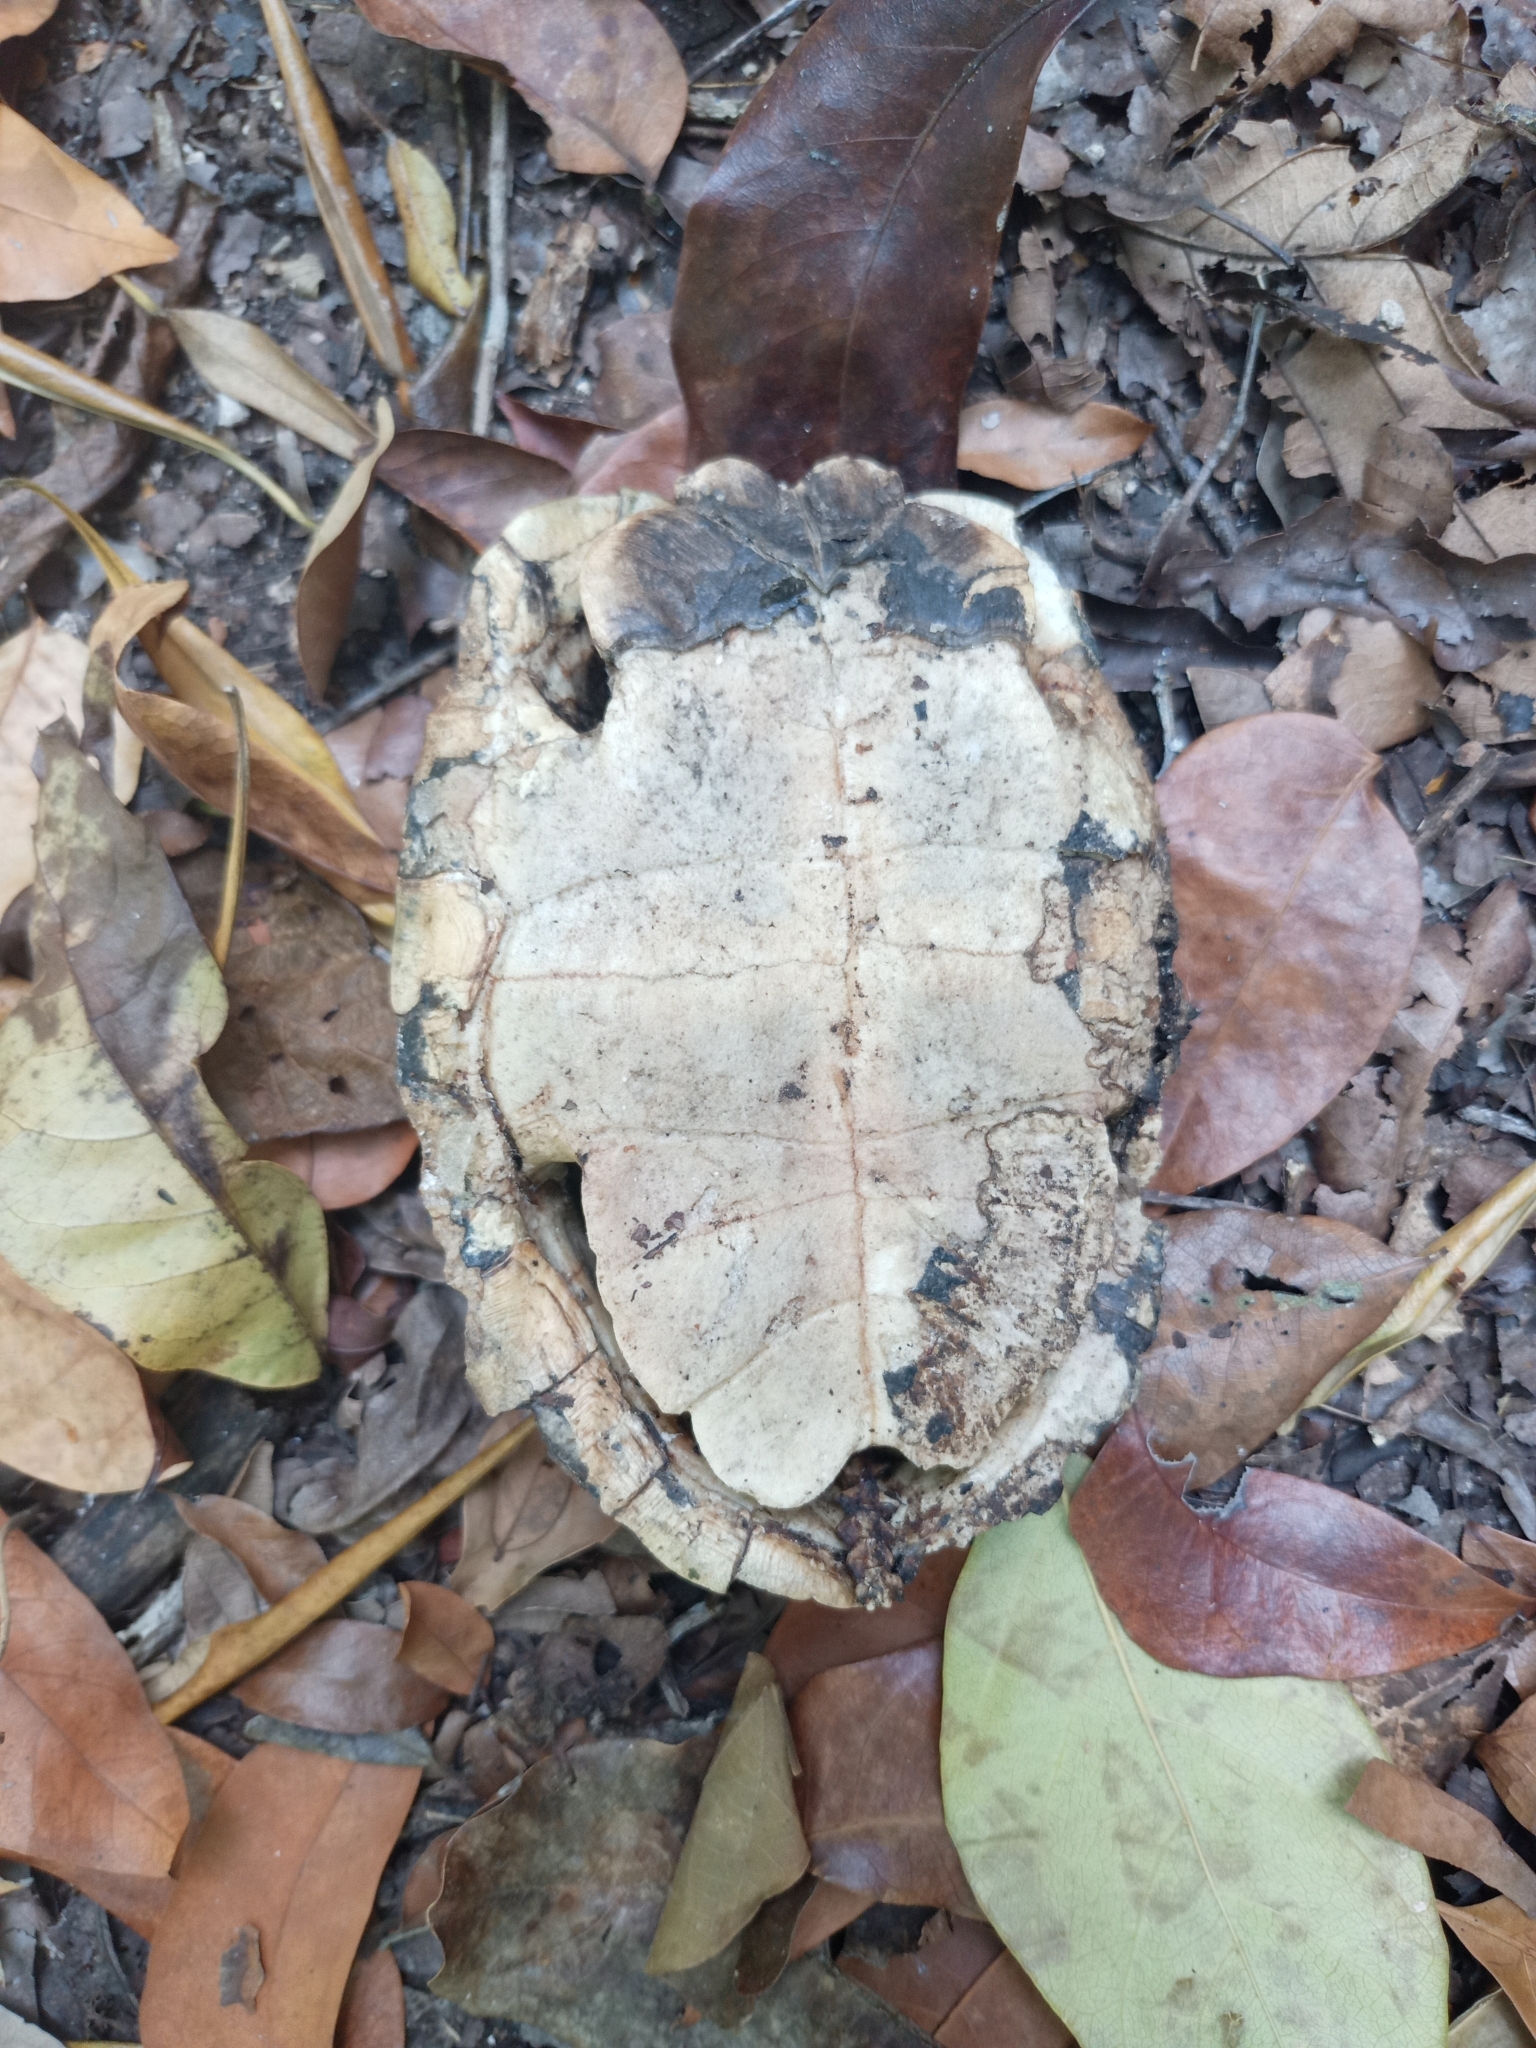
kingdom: Animalia
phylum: Chordata
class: Testudines
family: Geoemydidae
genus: Rhinoclemmys
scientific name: Rhinoclemmys areolata
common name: Furrowed wood turtle
